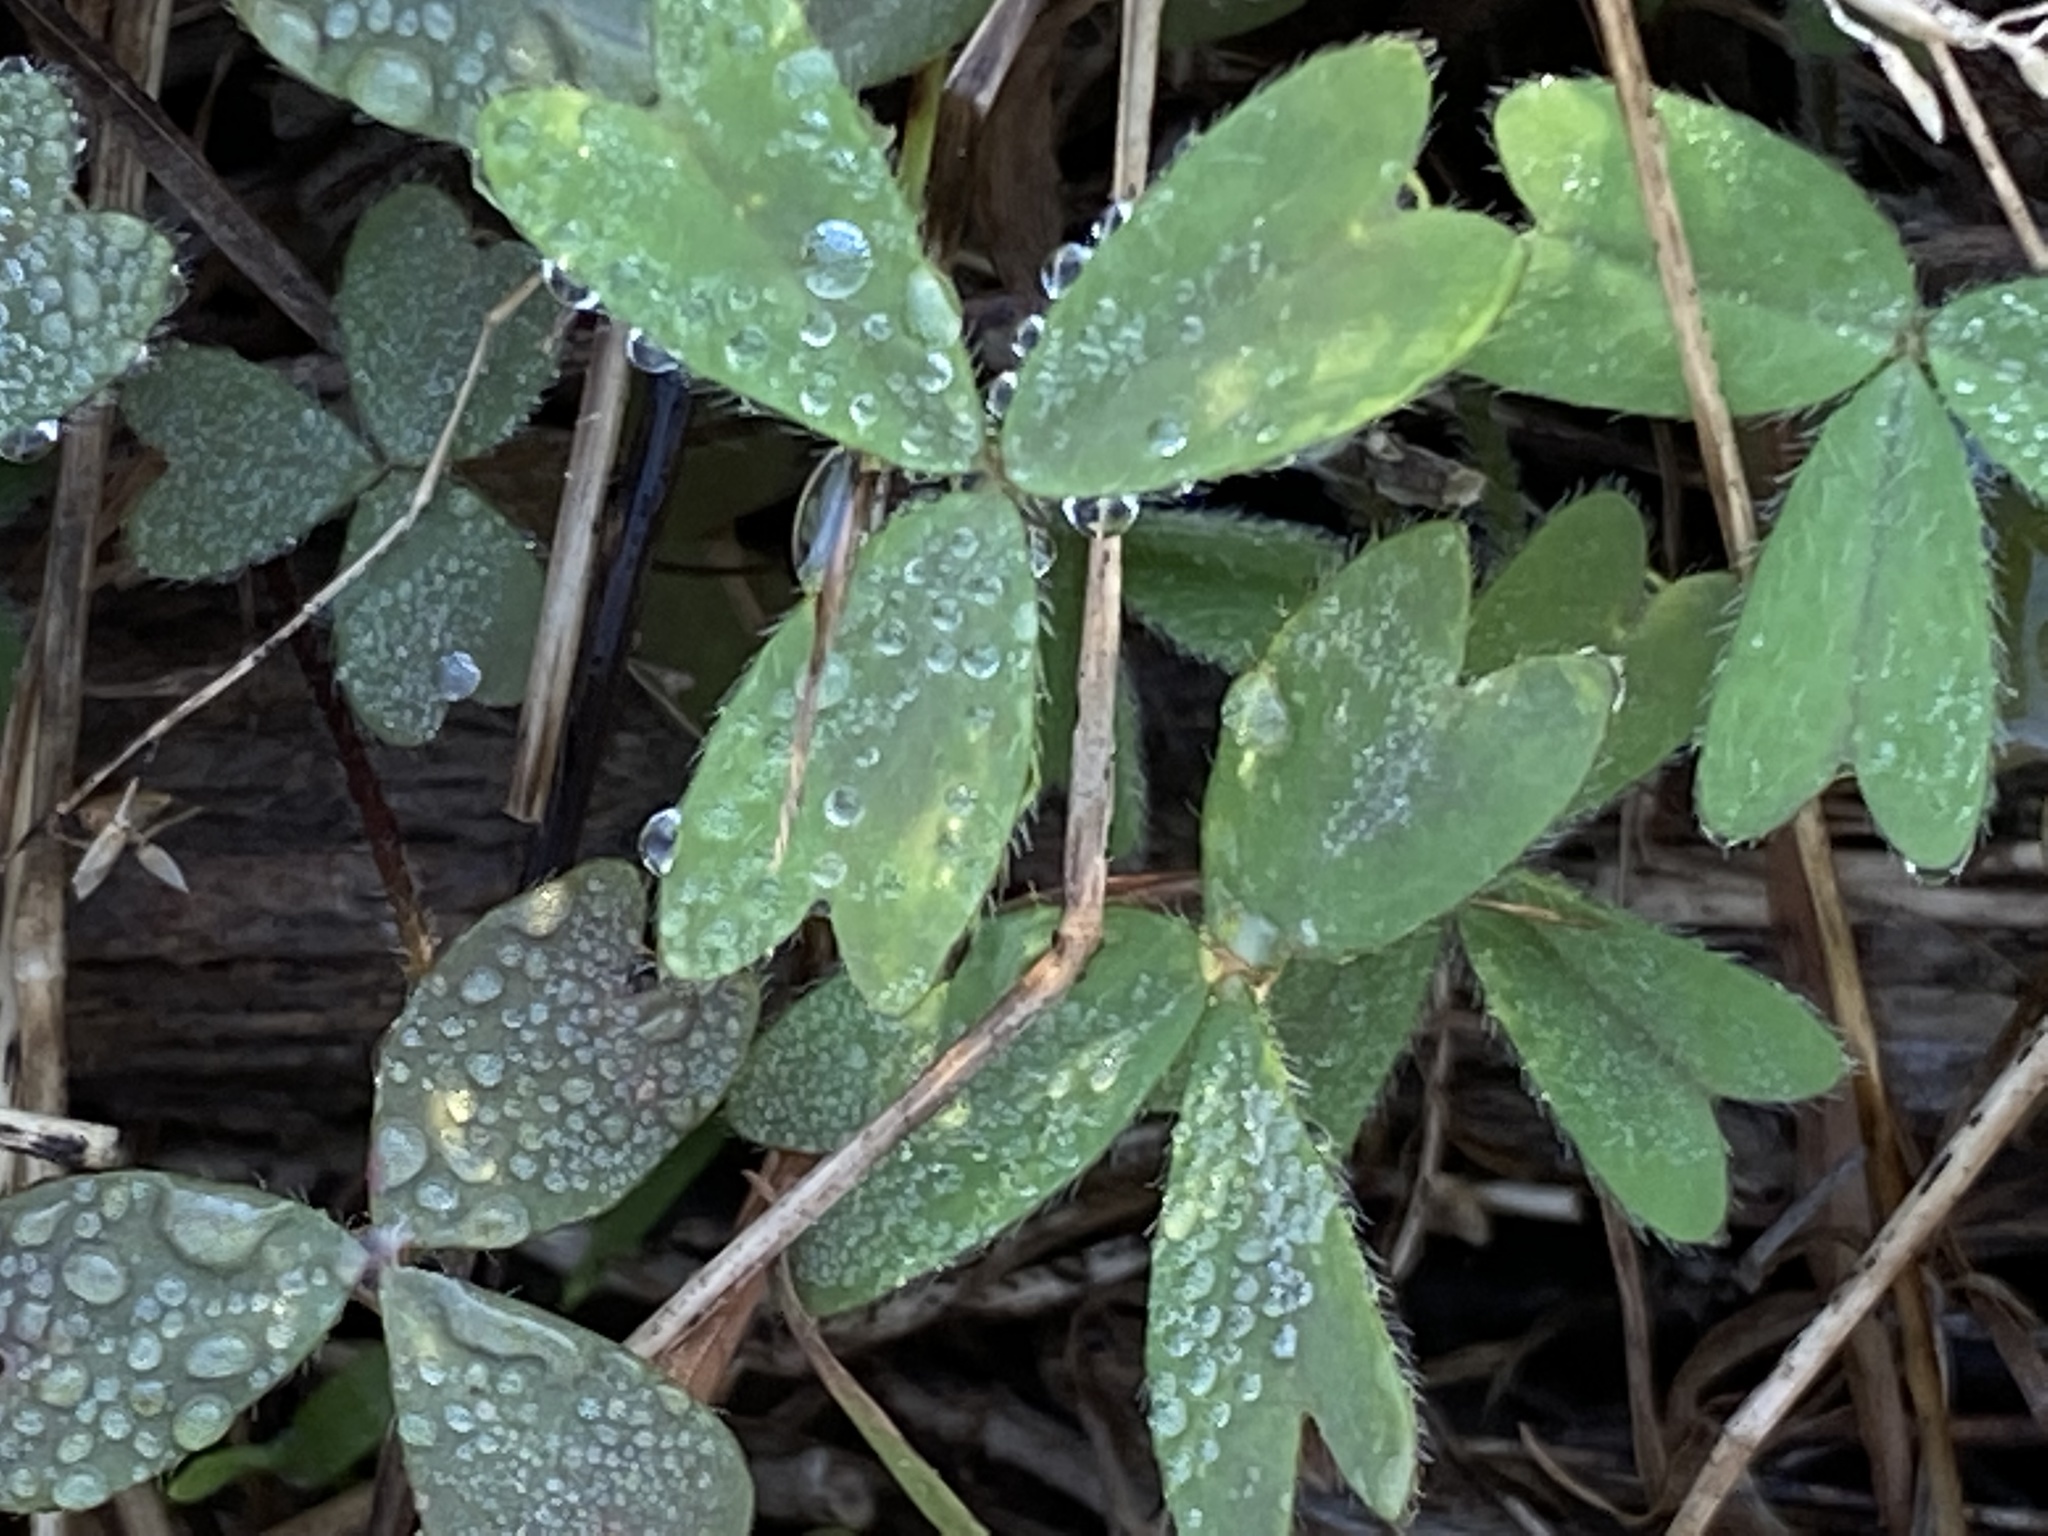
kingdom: Plantae
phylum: Tracheophyta
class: Magnoliopsida
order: Oxalidales
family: Oxalidaceae
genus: Oxalis
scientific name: Oxalis obtusa
